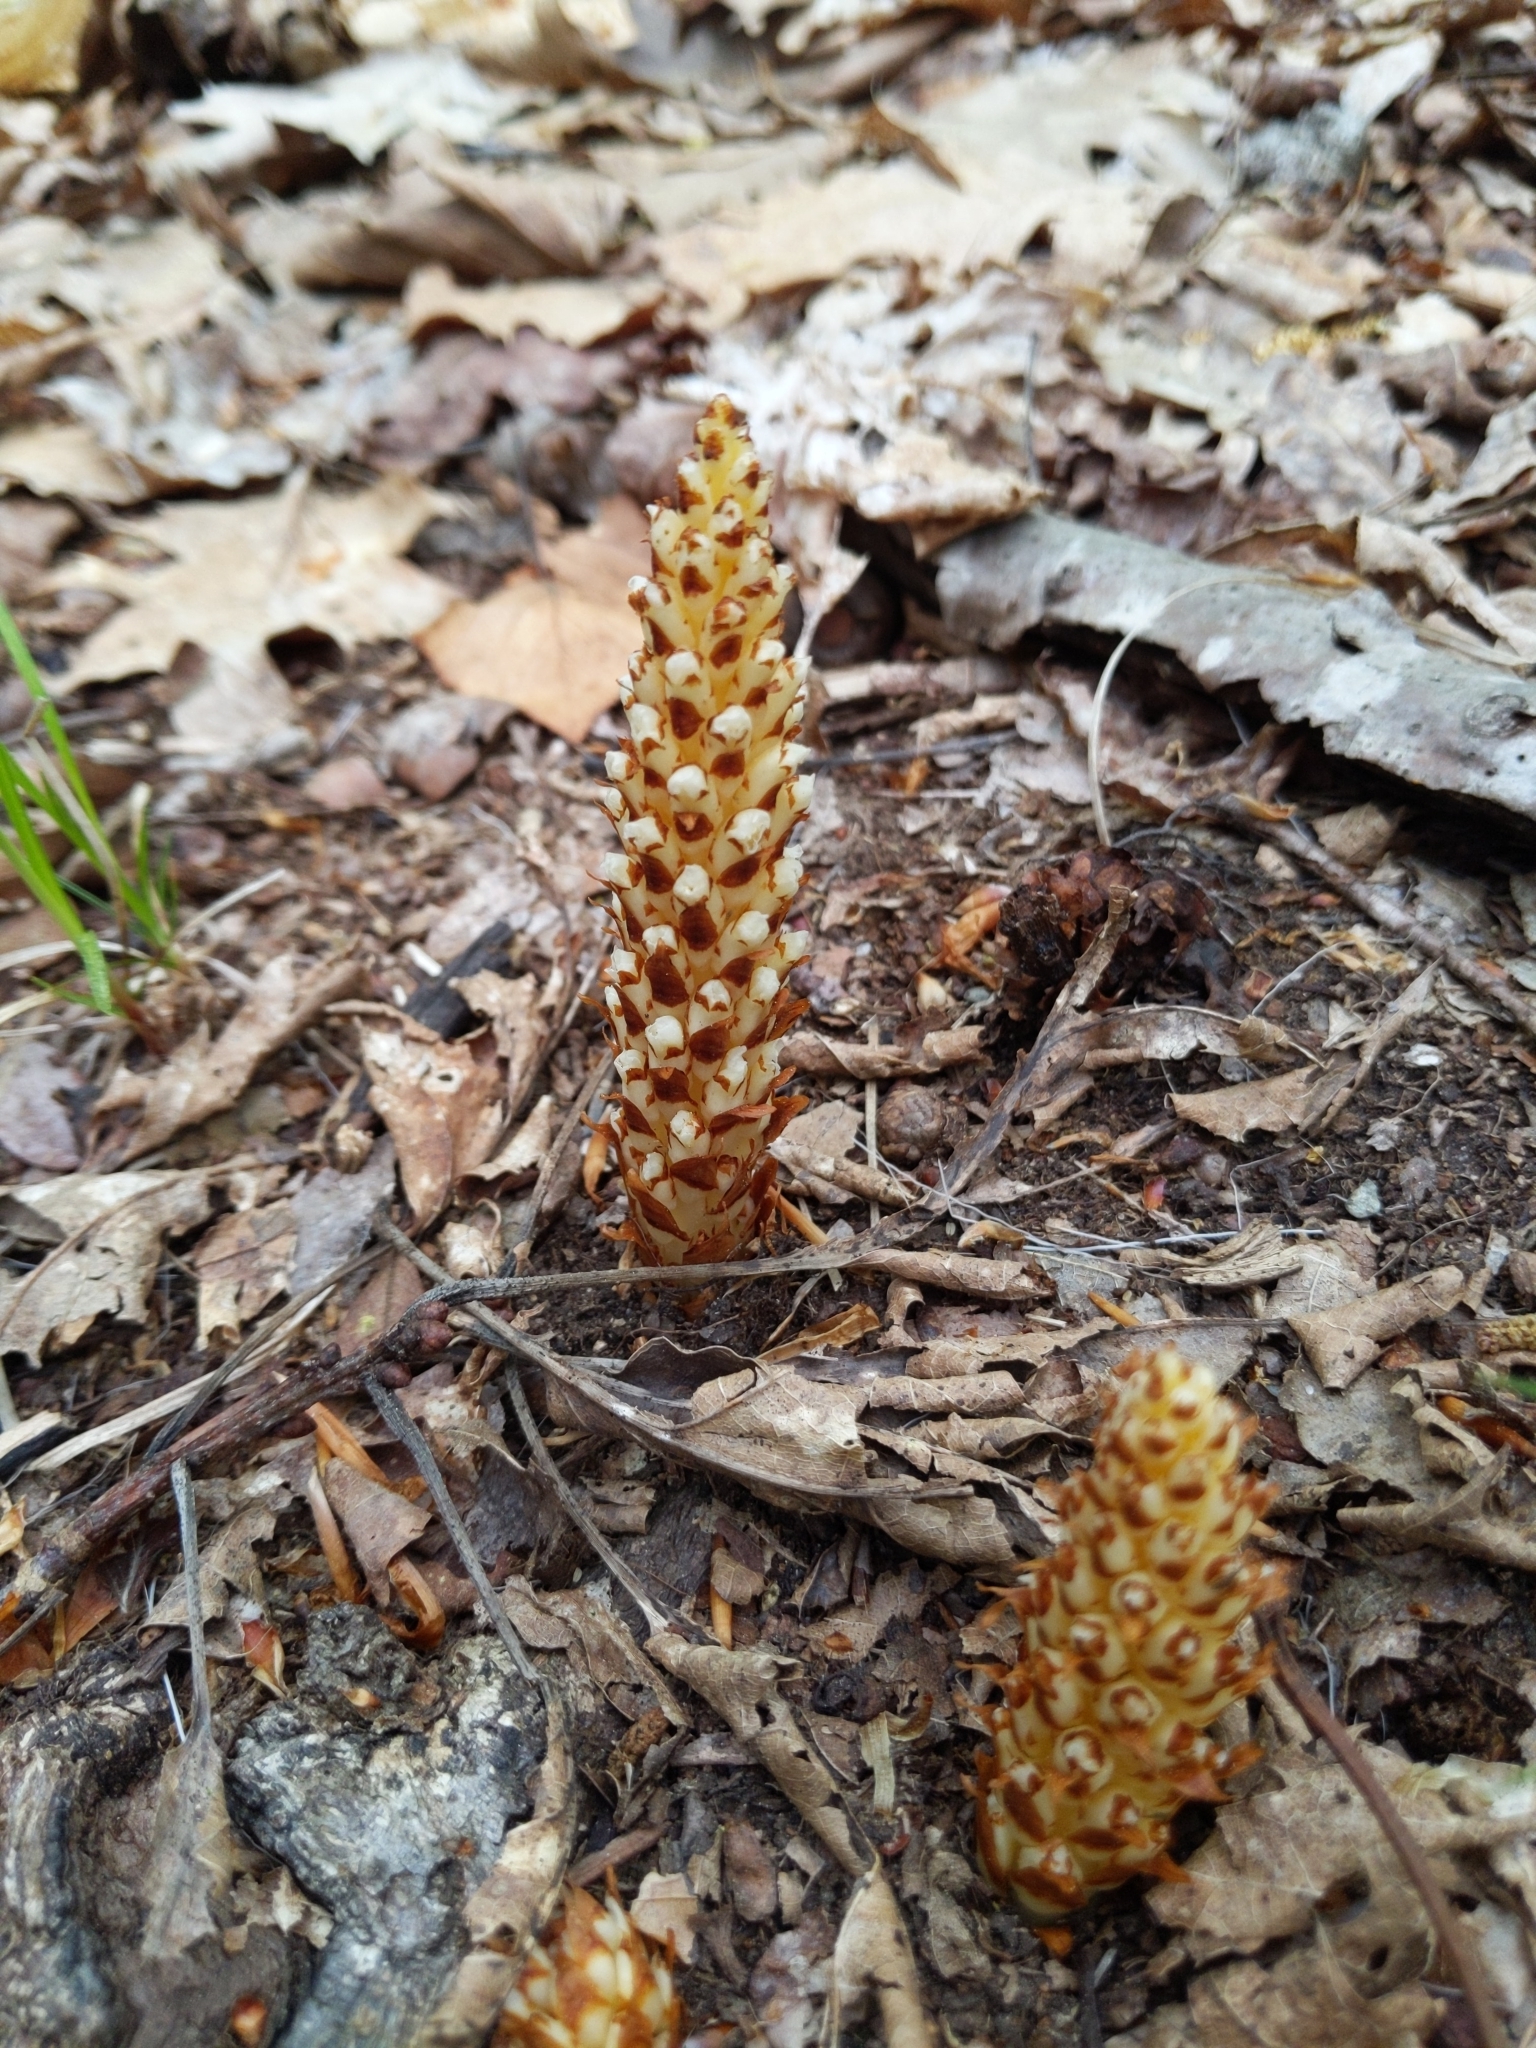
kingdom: Plantae
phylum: Tracheophyta
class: Magnoliopsida
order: Lamiales
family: Orobanchaceae
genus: Conopholis
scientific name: Conopholis americana
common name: American cancer-root
